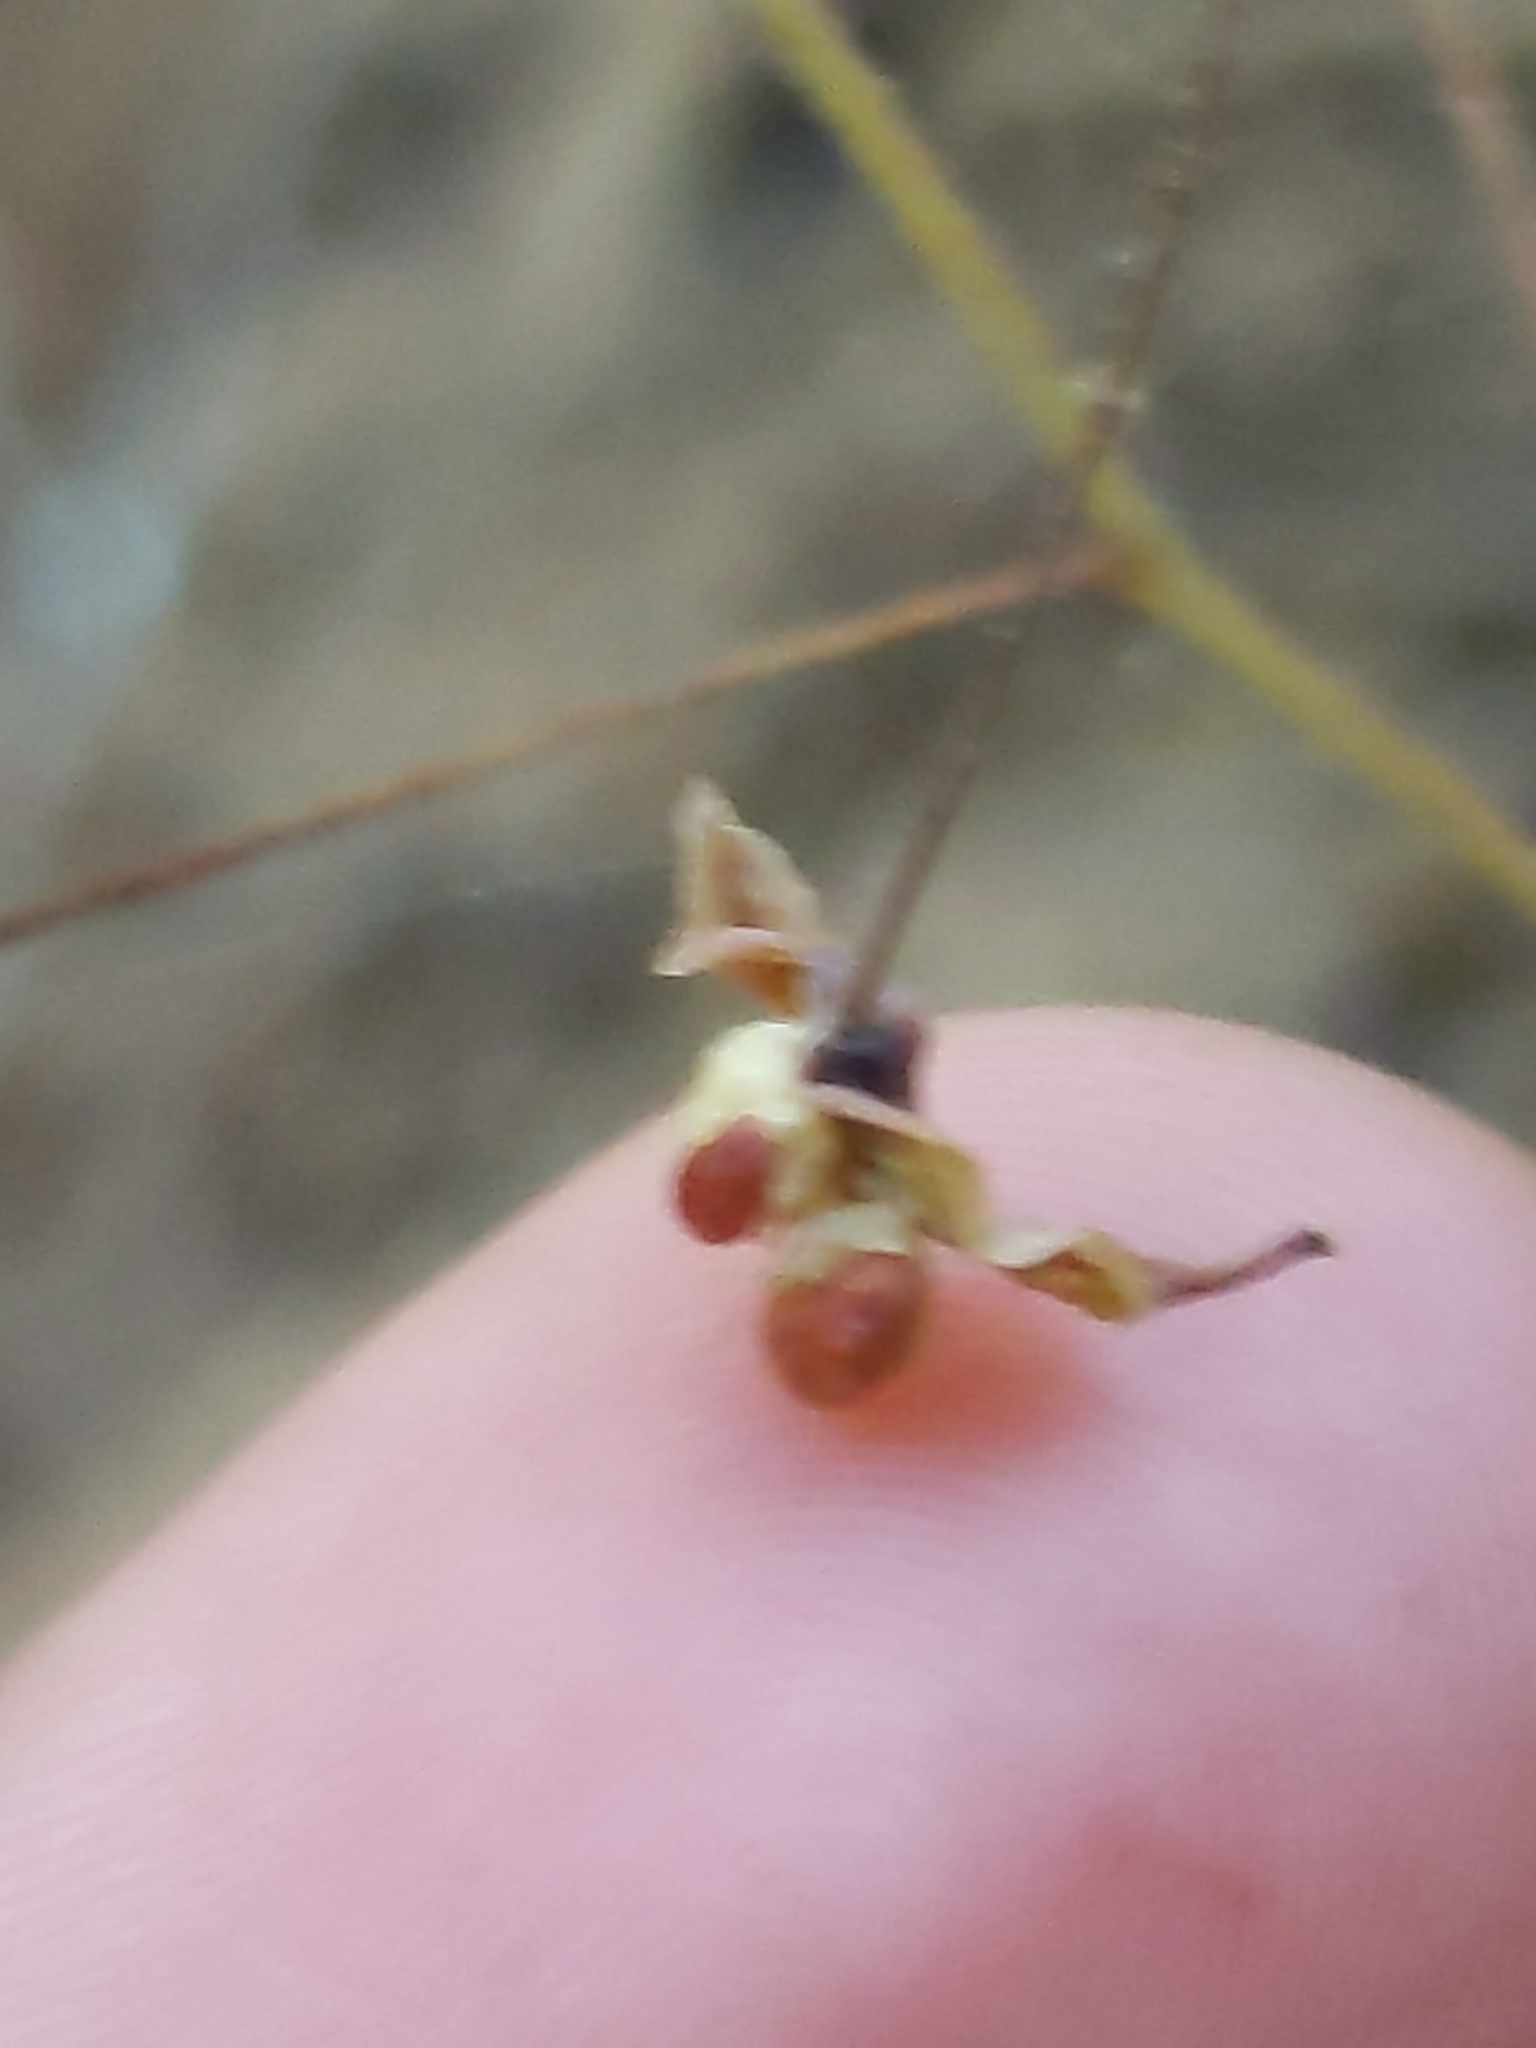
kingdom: Plantae
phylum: Tracheophyta
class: Magnoliopsida
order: Ranunculales
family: Berberidaceae
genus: Vancouveria
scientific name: Vancouveria planipetala
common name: Redwood-ivy
